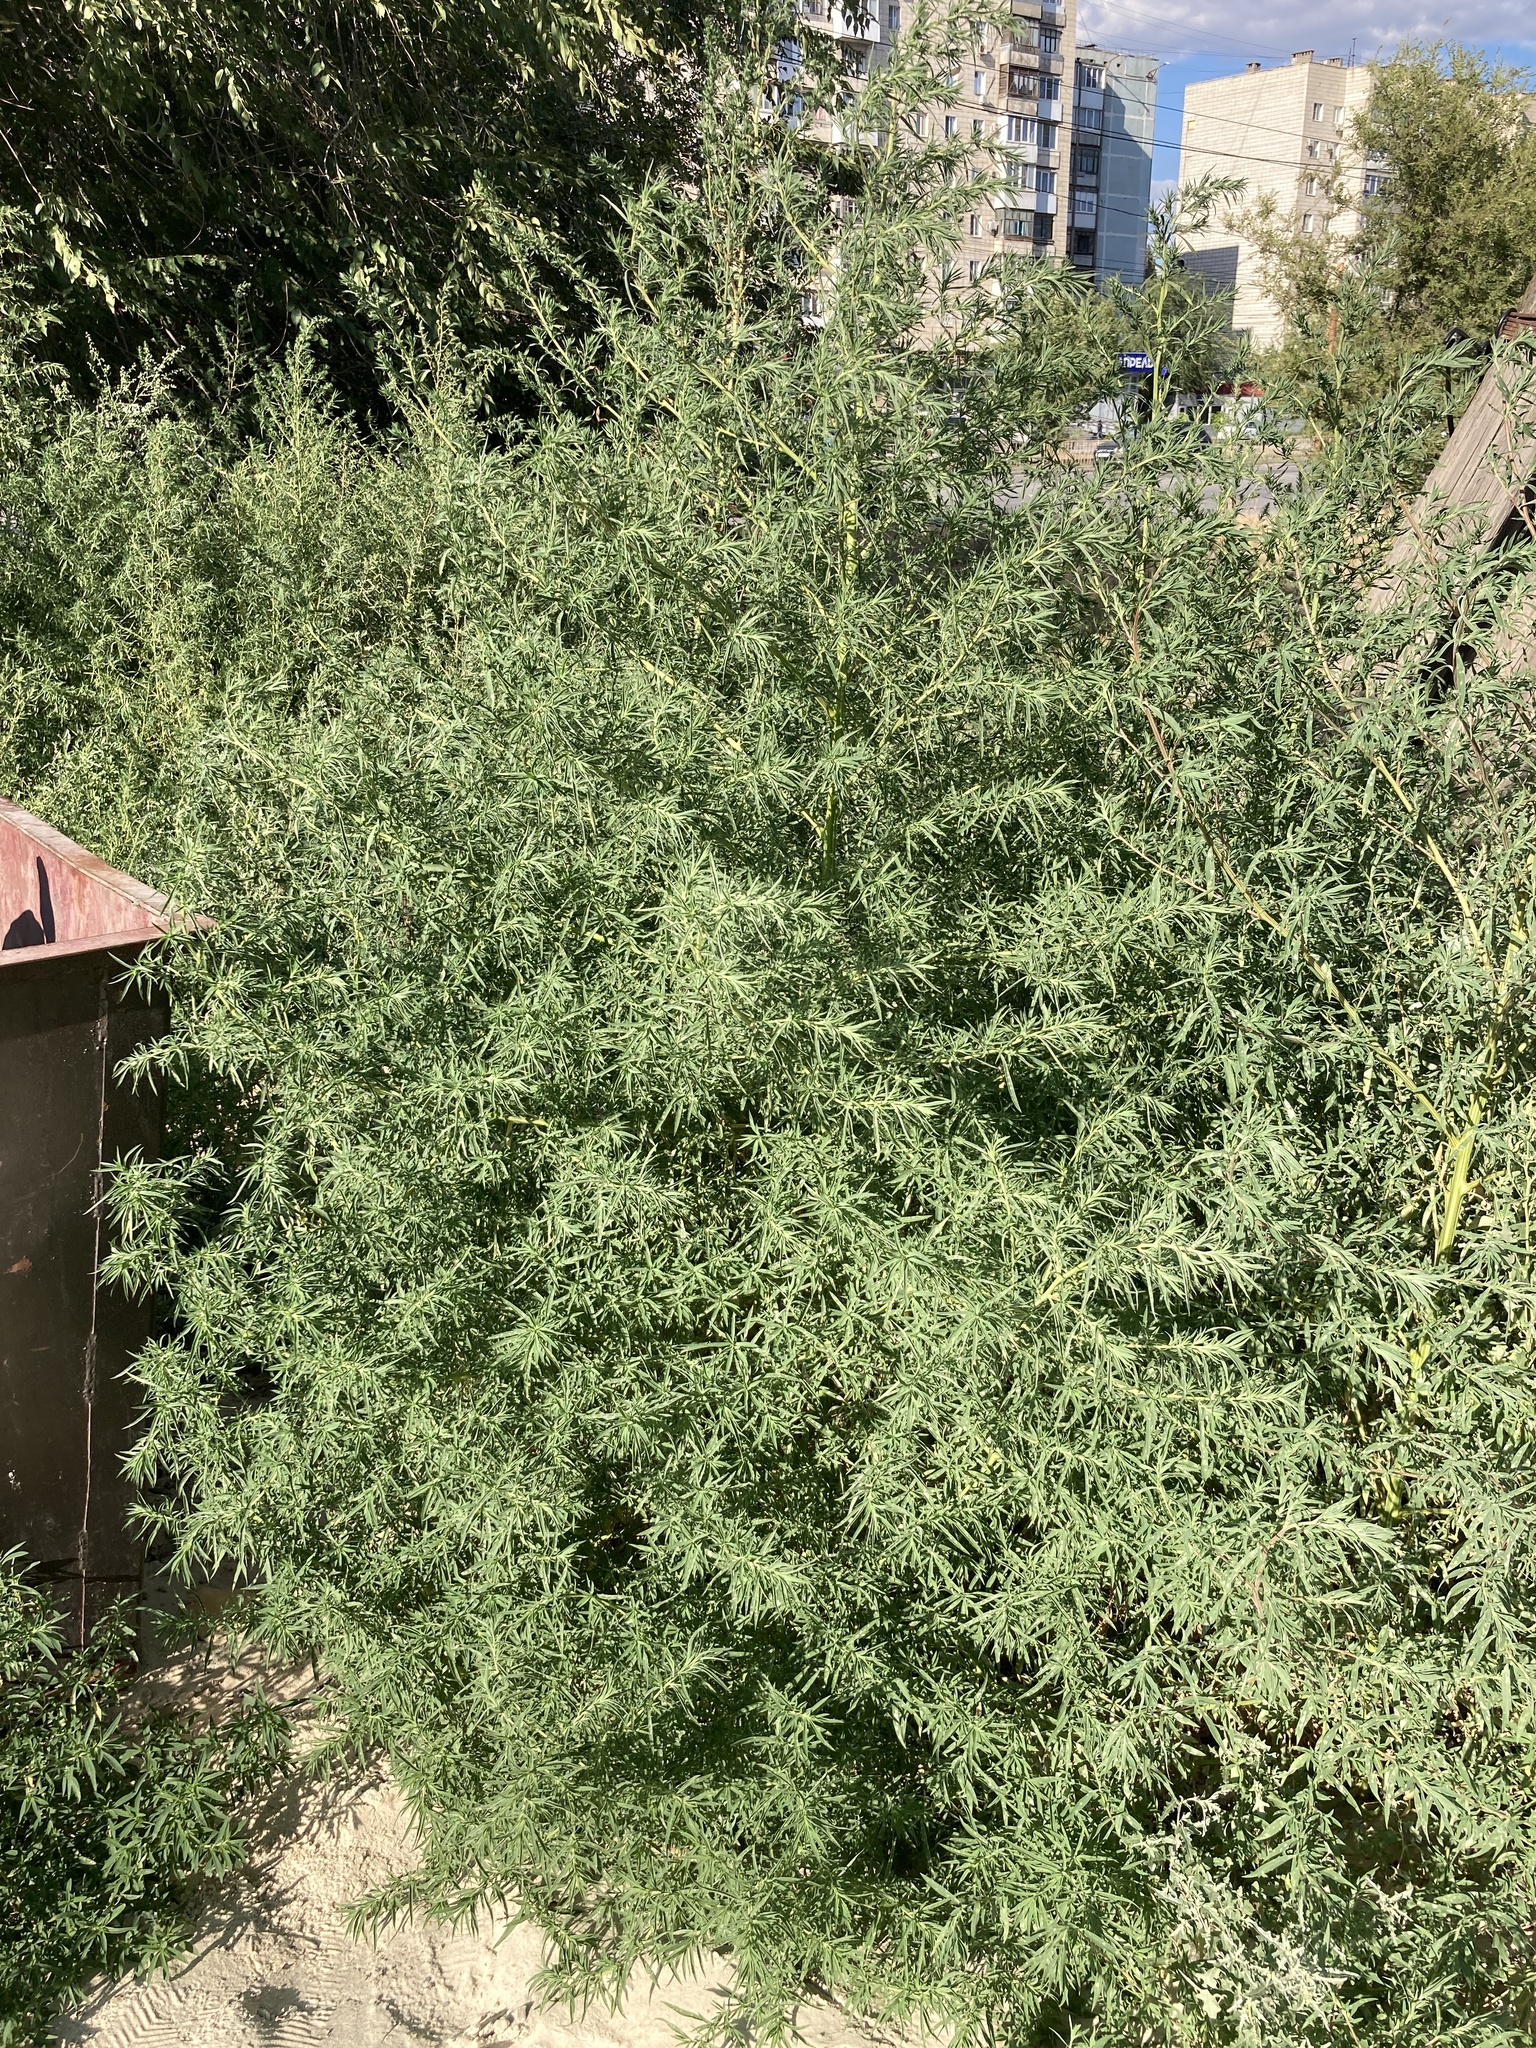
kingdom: Plantae
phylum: Tracheophyta
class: Magnoliopsida
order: Caryophyllales
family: Amaranthaceae
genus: Bassia
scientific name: Bassia scoparia
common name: Belvedere
